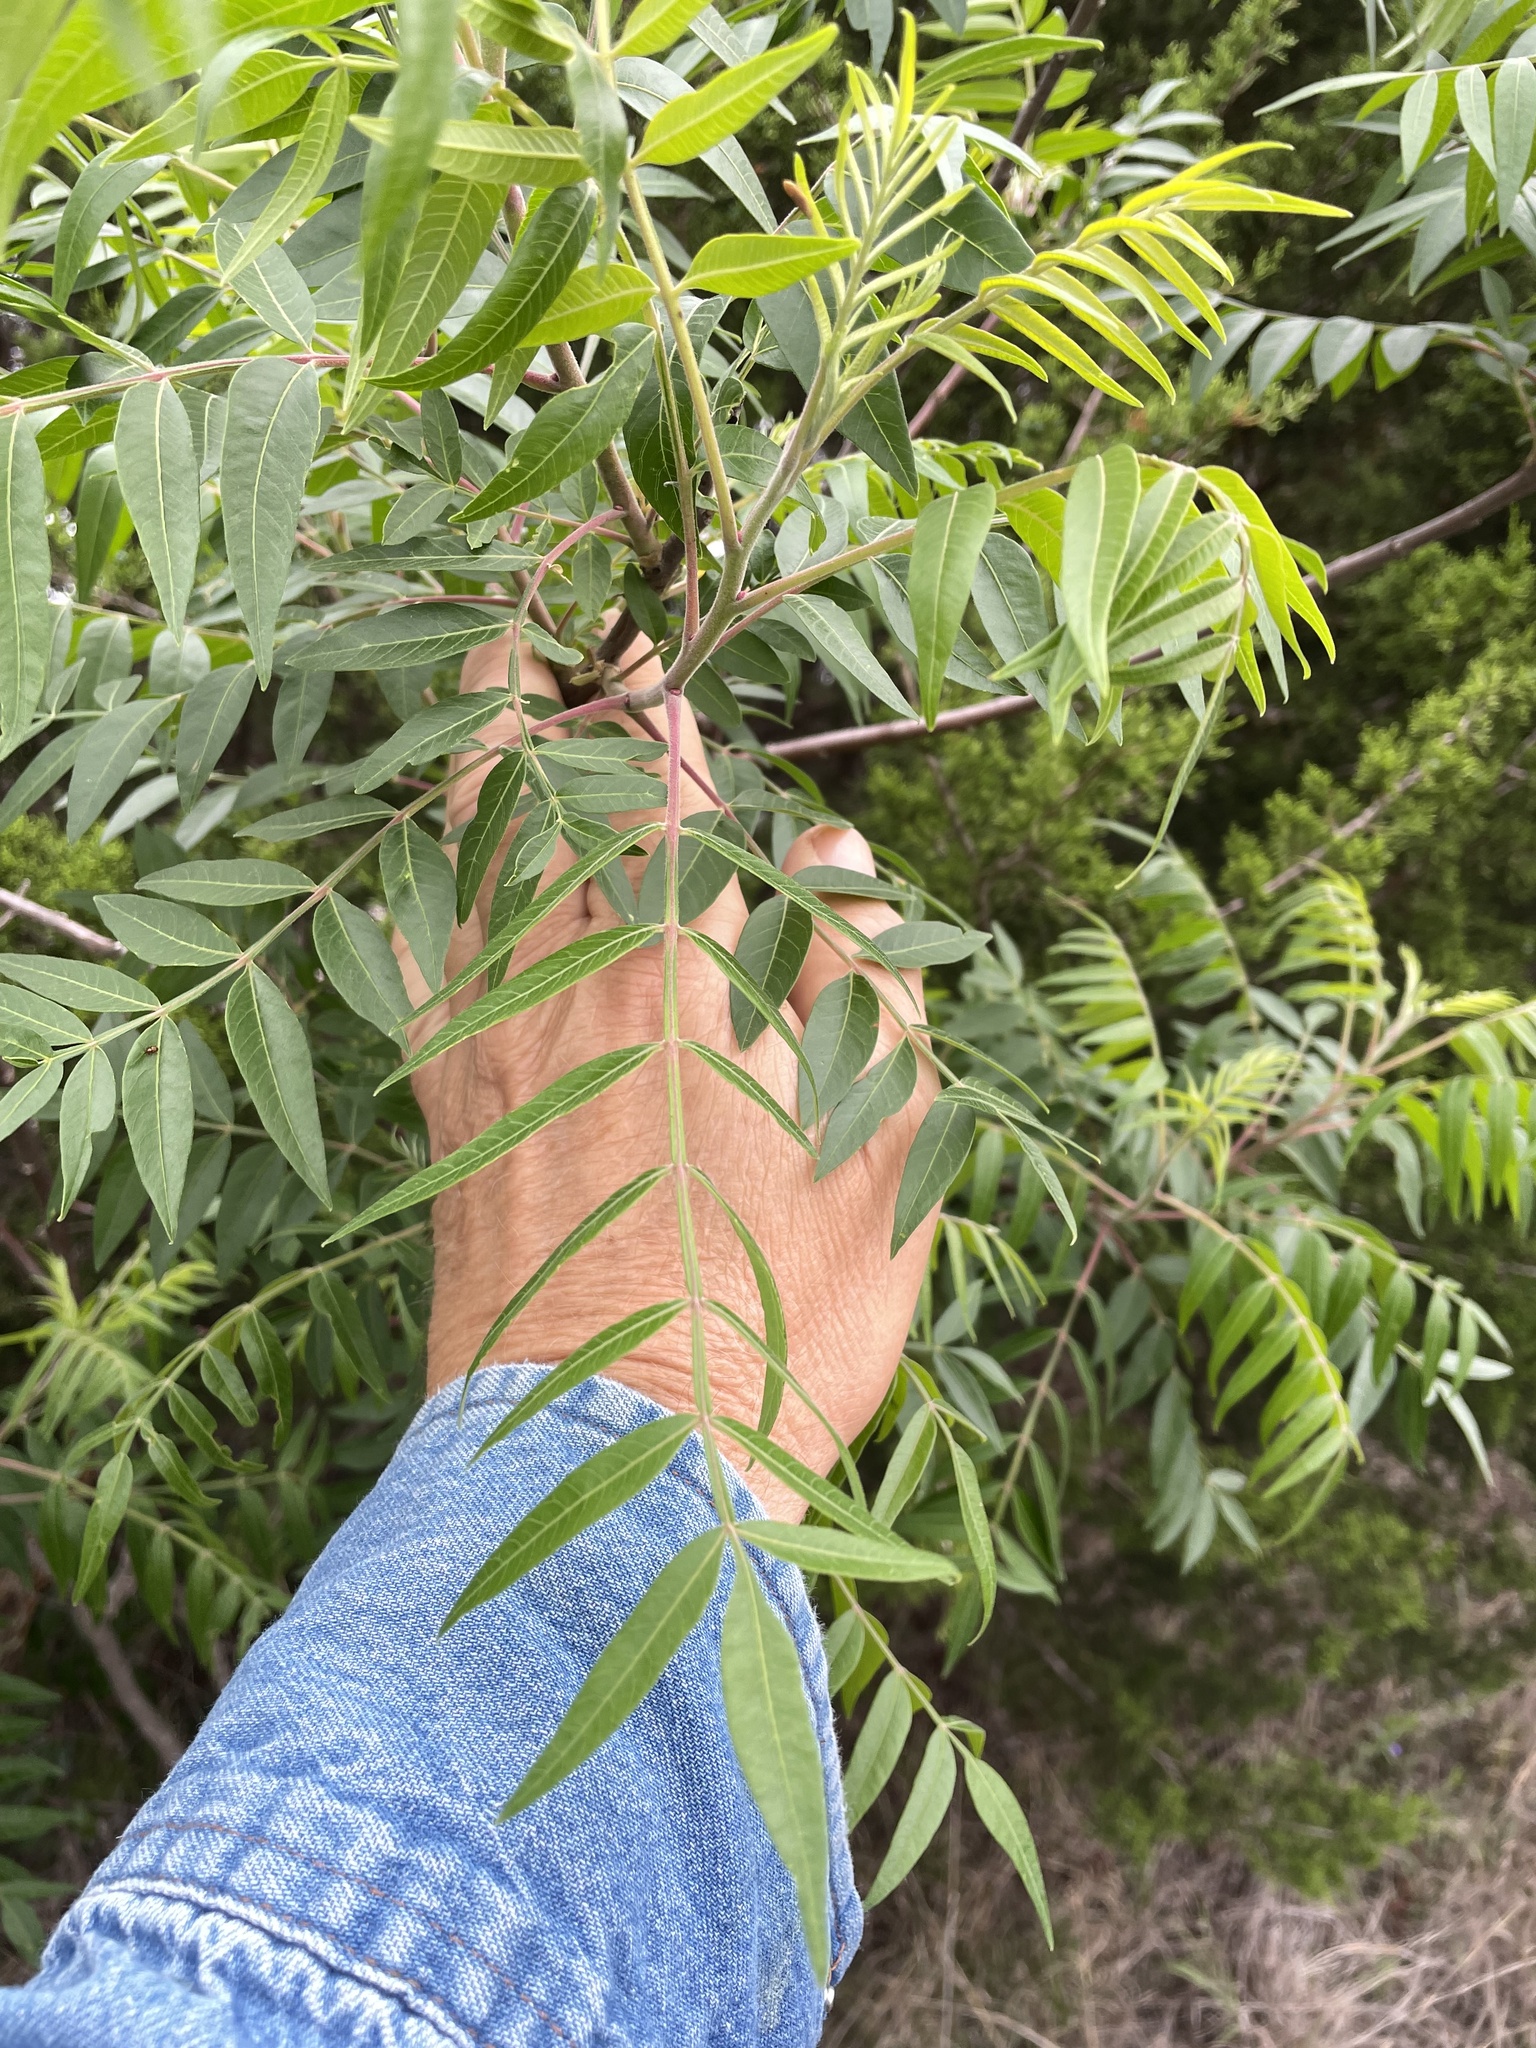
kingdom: Plantae
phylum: Tracheophyta
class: Magnoliopsida
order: Sapindales
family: Anacardiaceae
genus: Rhus
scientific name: Rhus lanceolata
